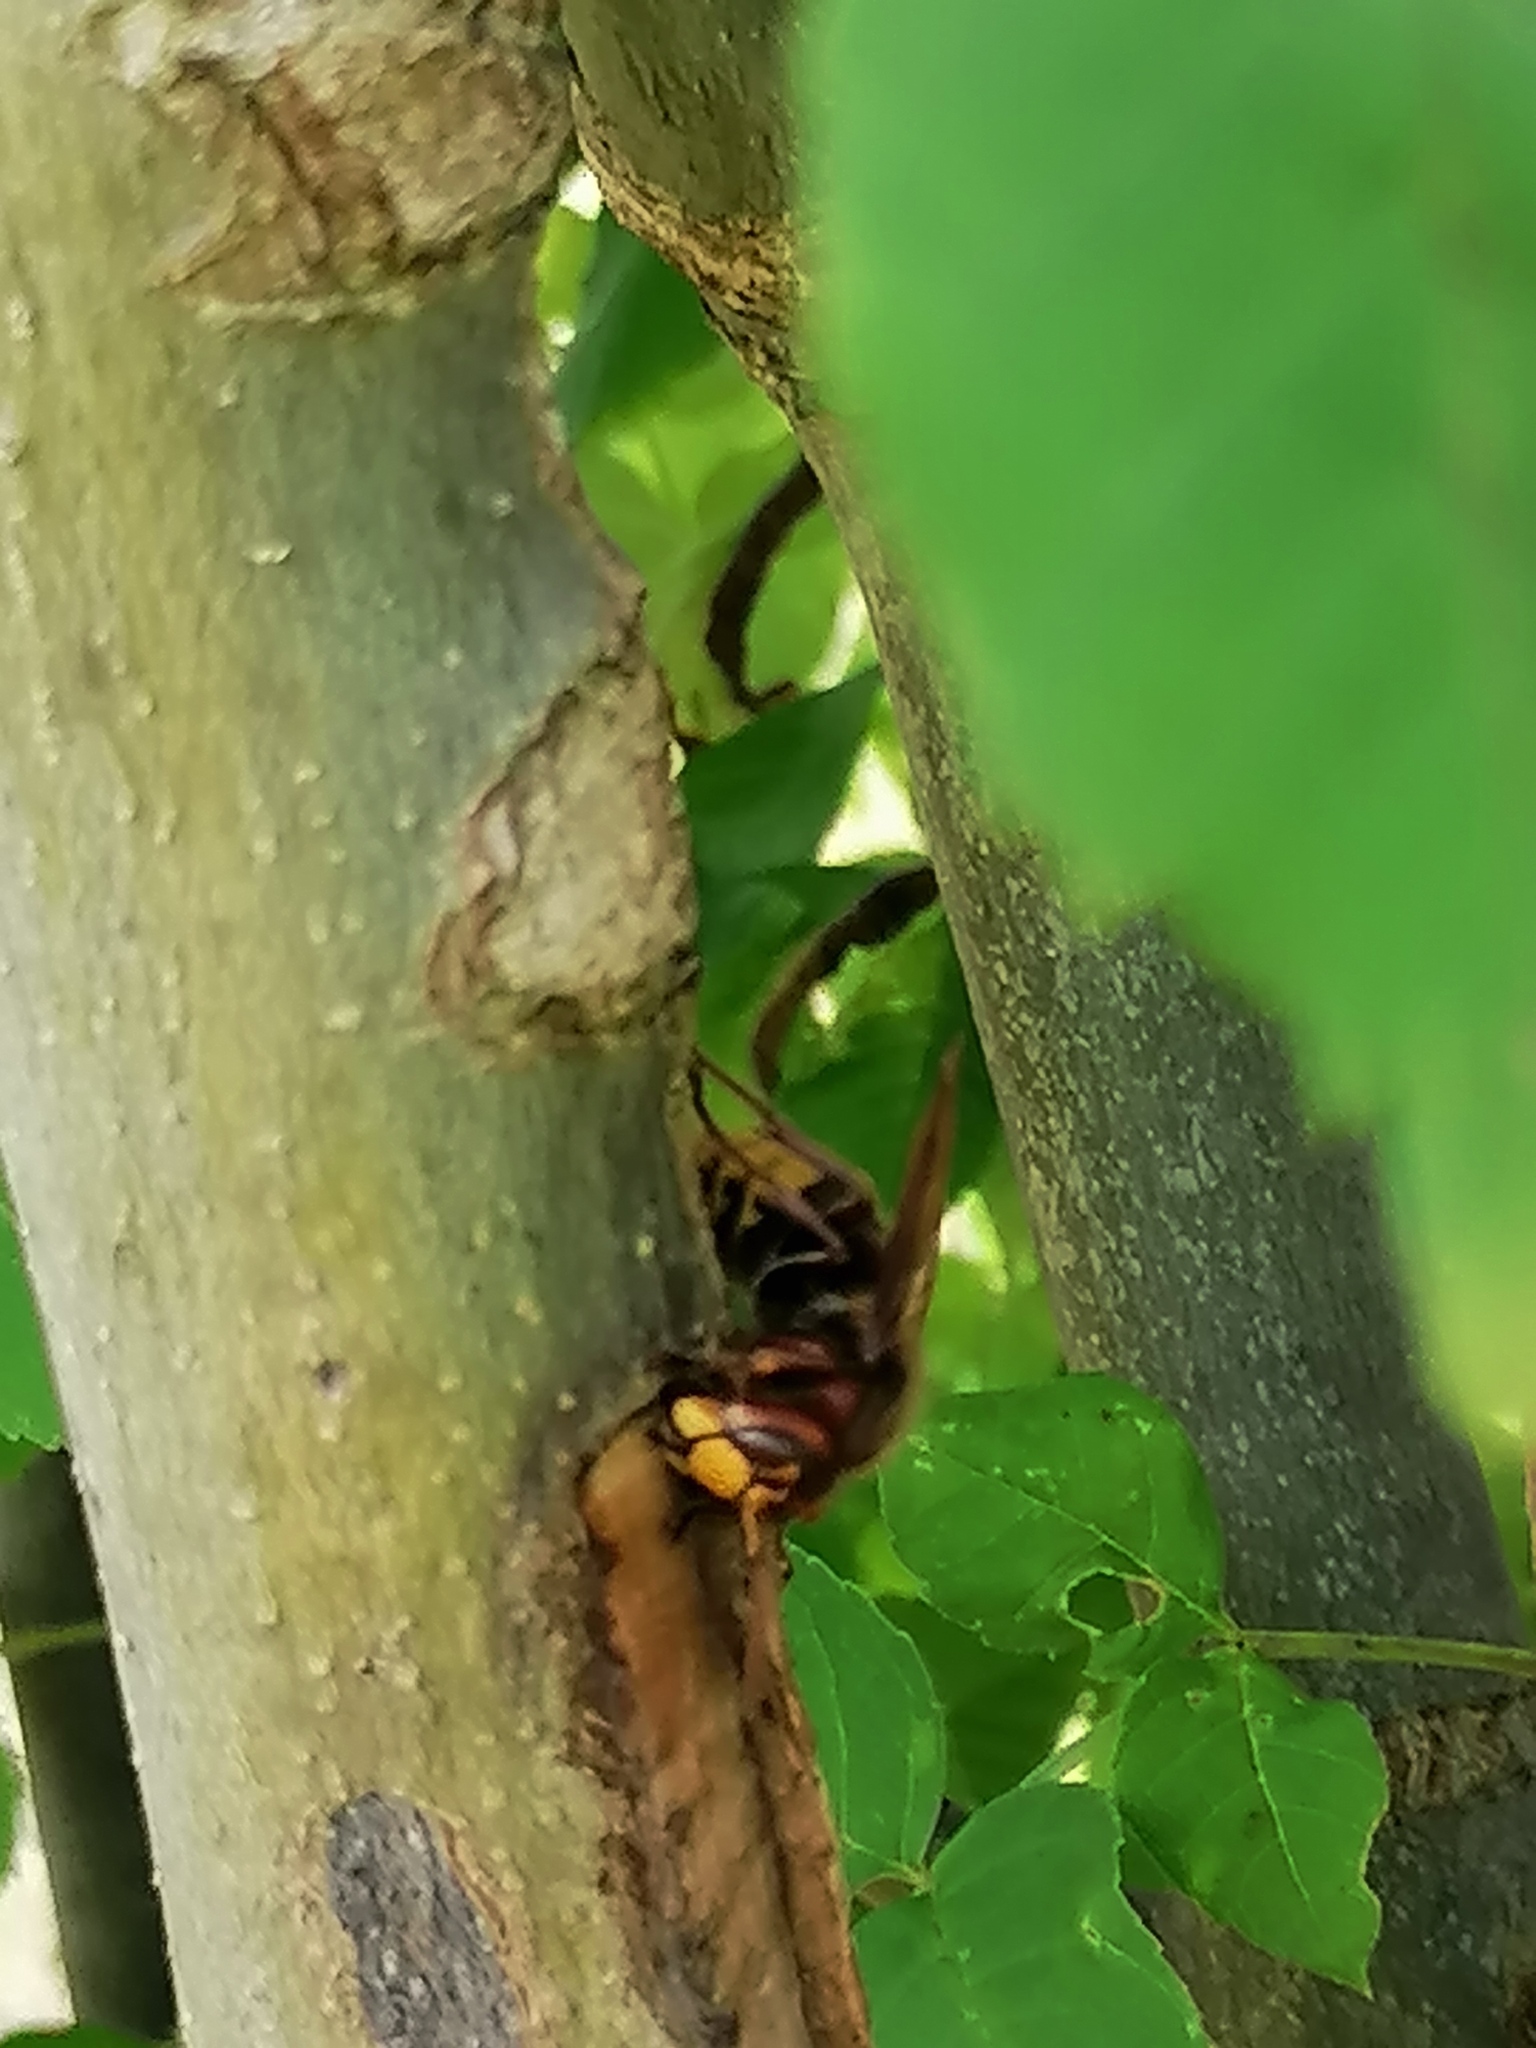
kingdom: Animalia
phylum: Arthropoda
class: Insecta
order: Hymenoptera
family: Vespidae
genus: Vespa
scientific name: Vespa crabro
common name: Hornet
